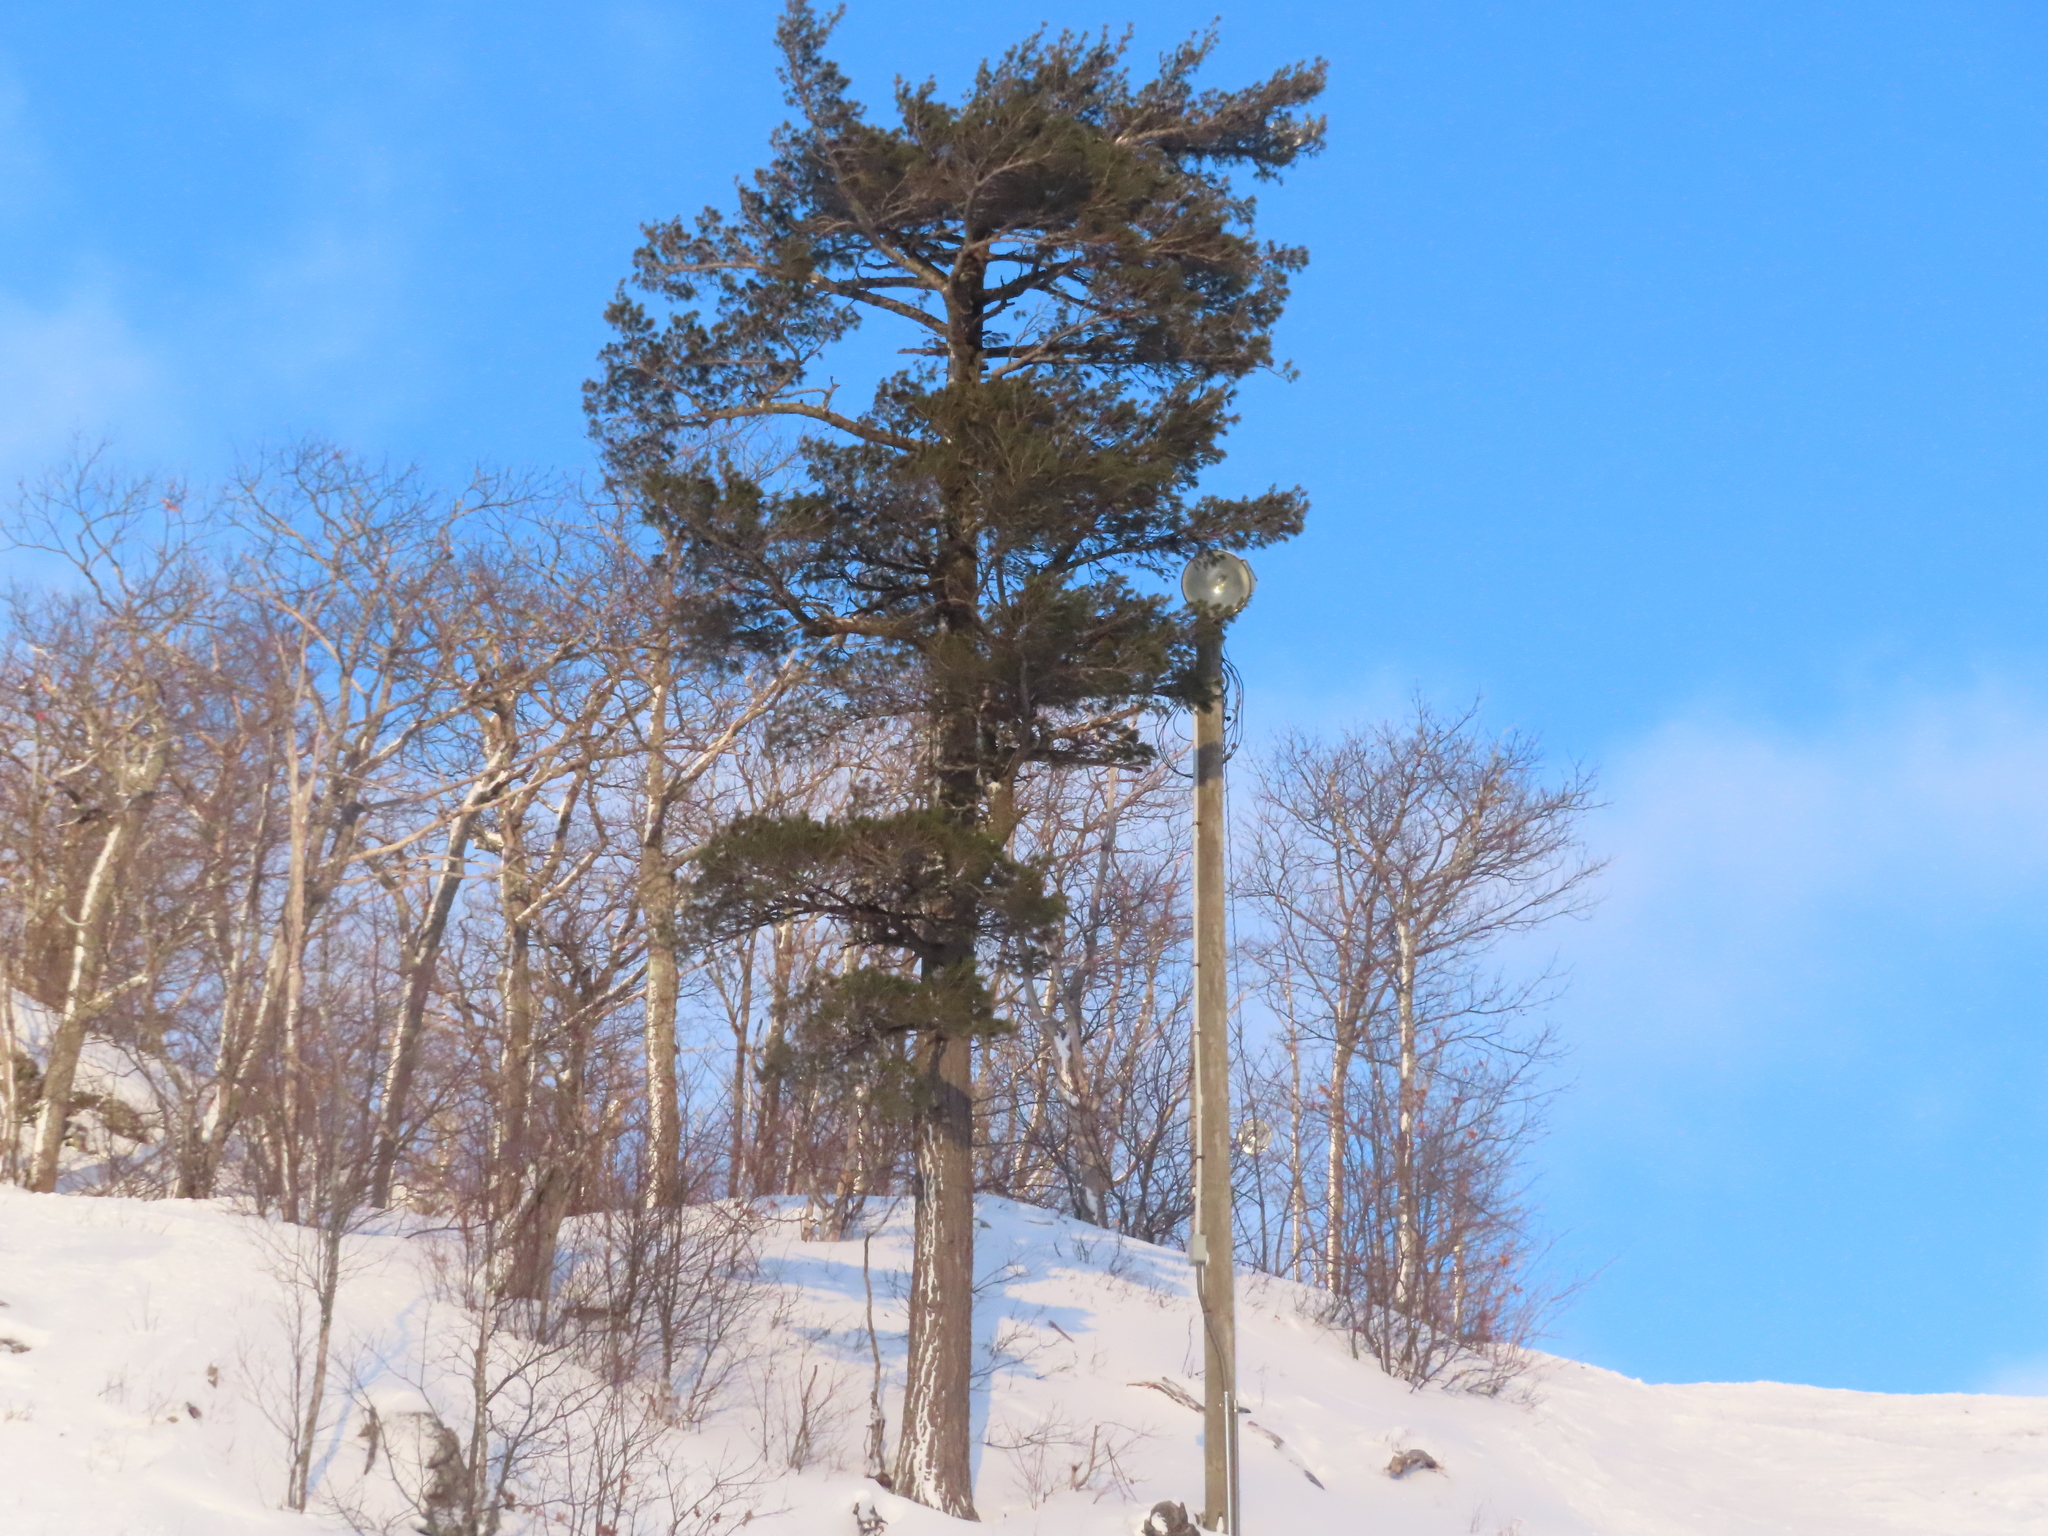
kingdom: Plantae
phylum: Tracheophyta
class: Pinopsida
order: Pinales
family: Pinaceae
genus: Pinus
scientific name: Pinus strobus
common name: Weymouth pine
